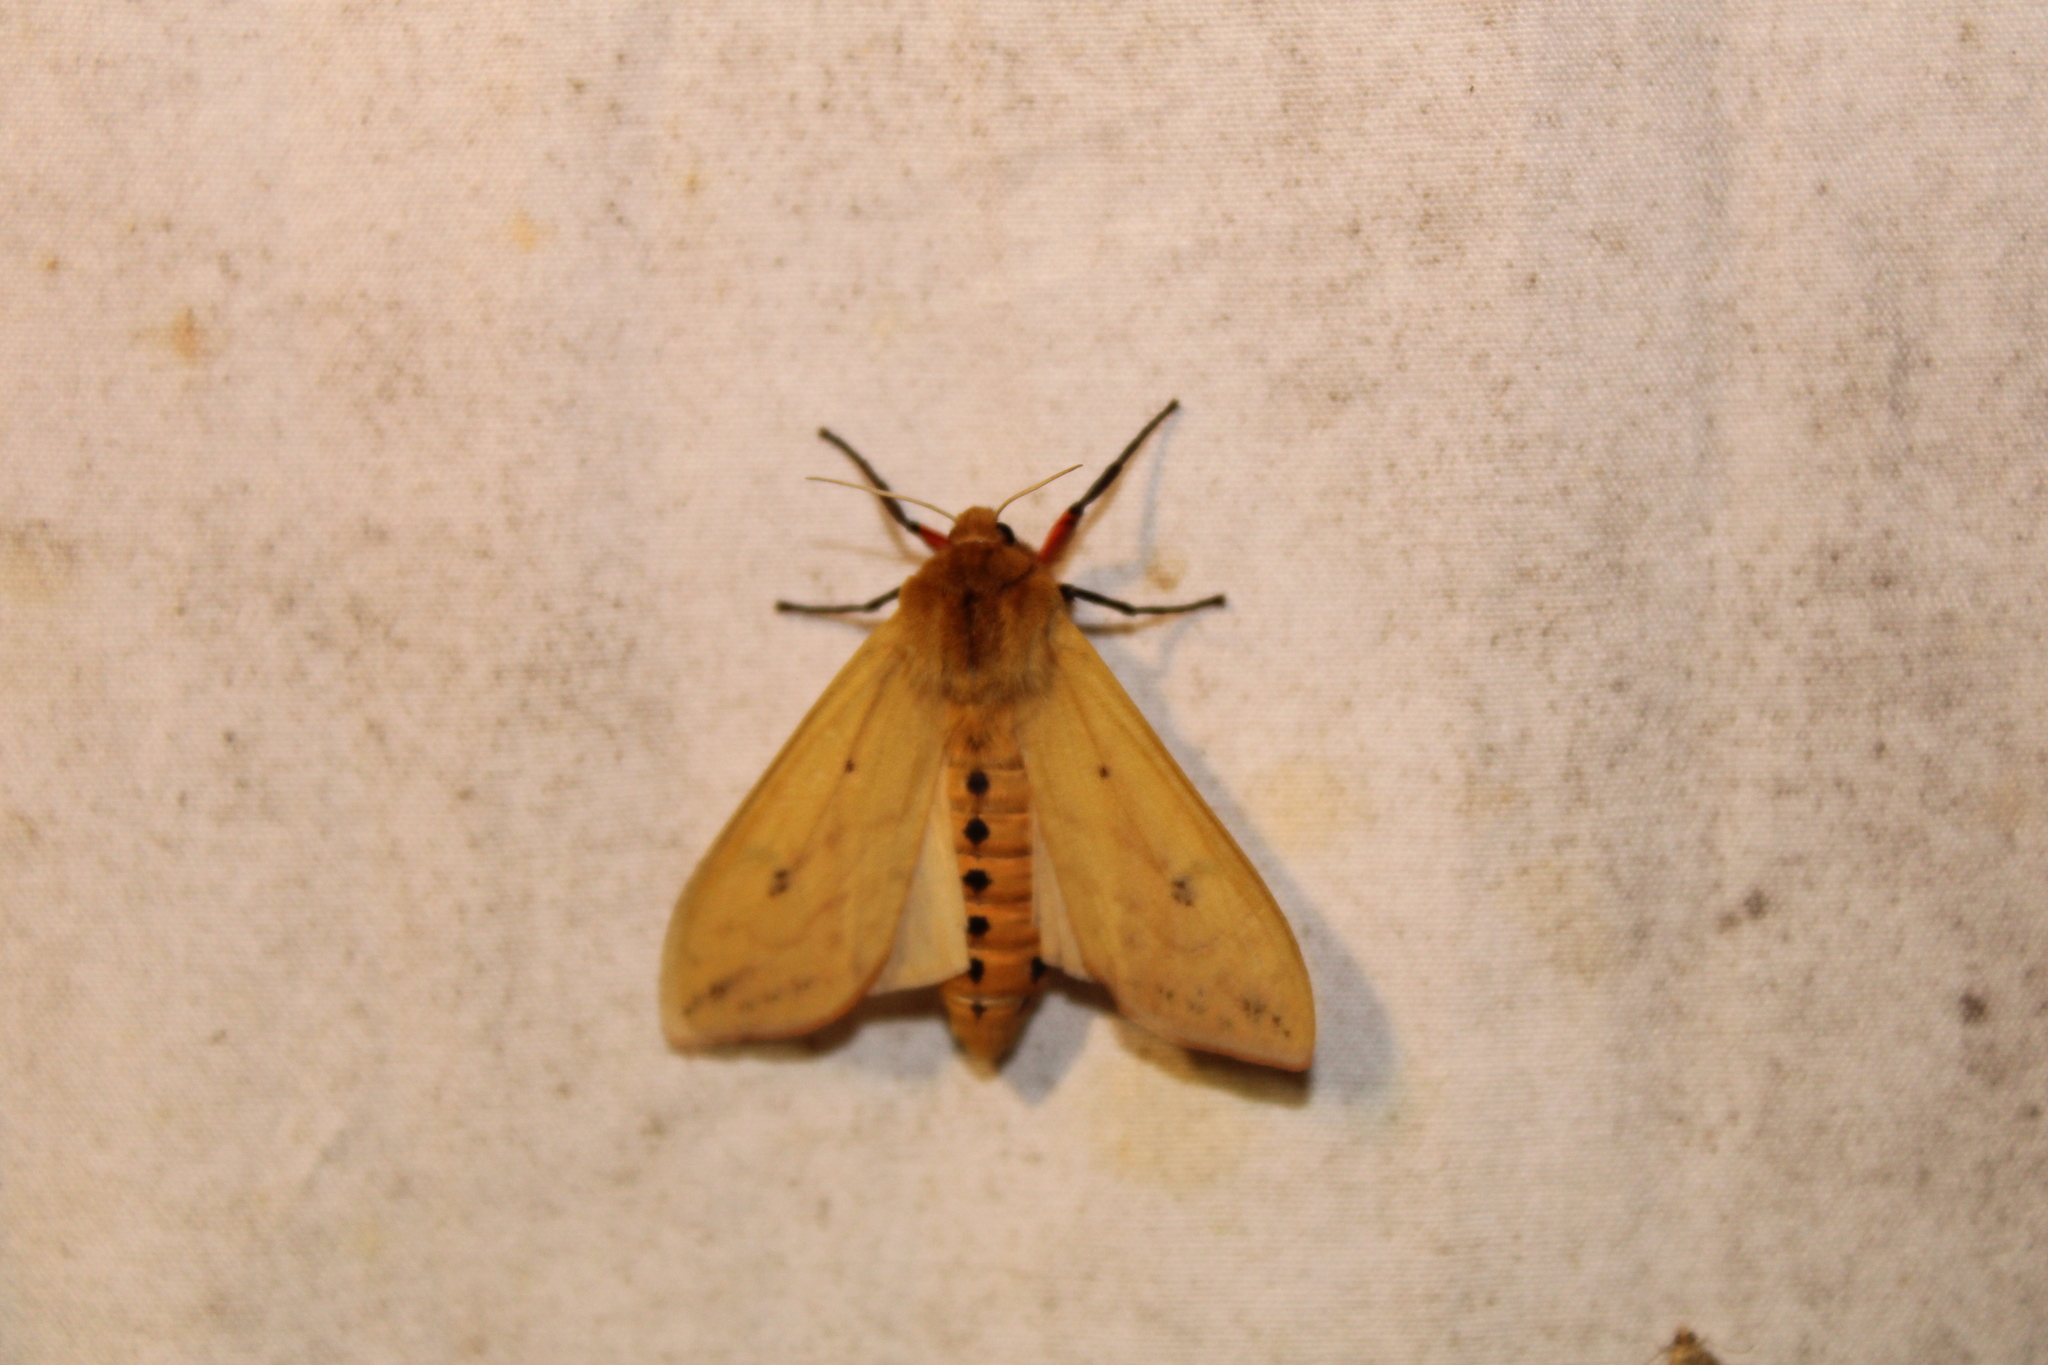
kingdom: Animalia
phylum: Arthropoda
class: Insecta
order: Lepidoptera
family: Erebidae
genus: Pyrrharctia
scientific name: Pyrrharctia isabella
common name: Isabella tiger moth
